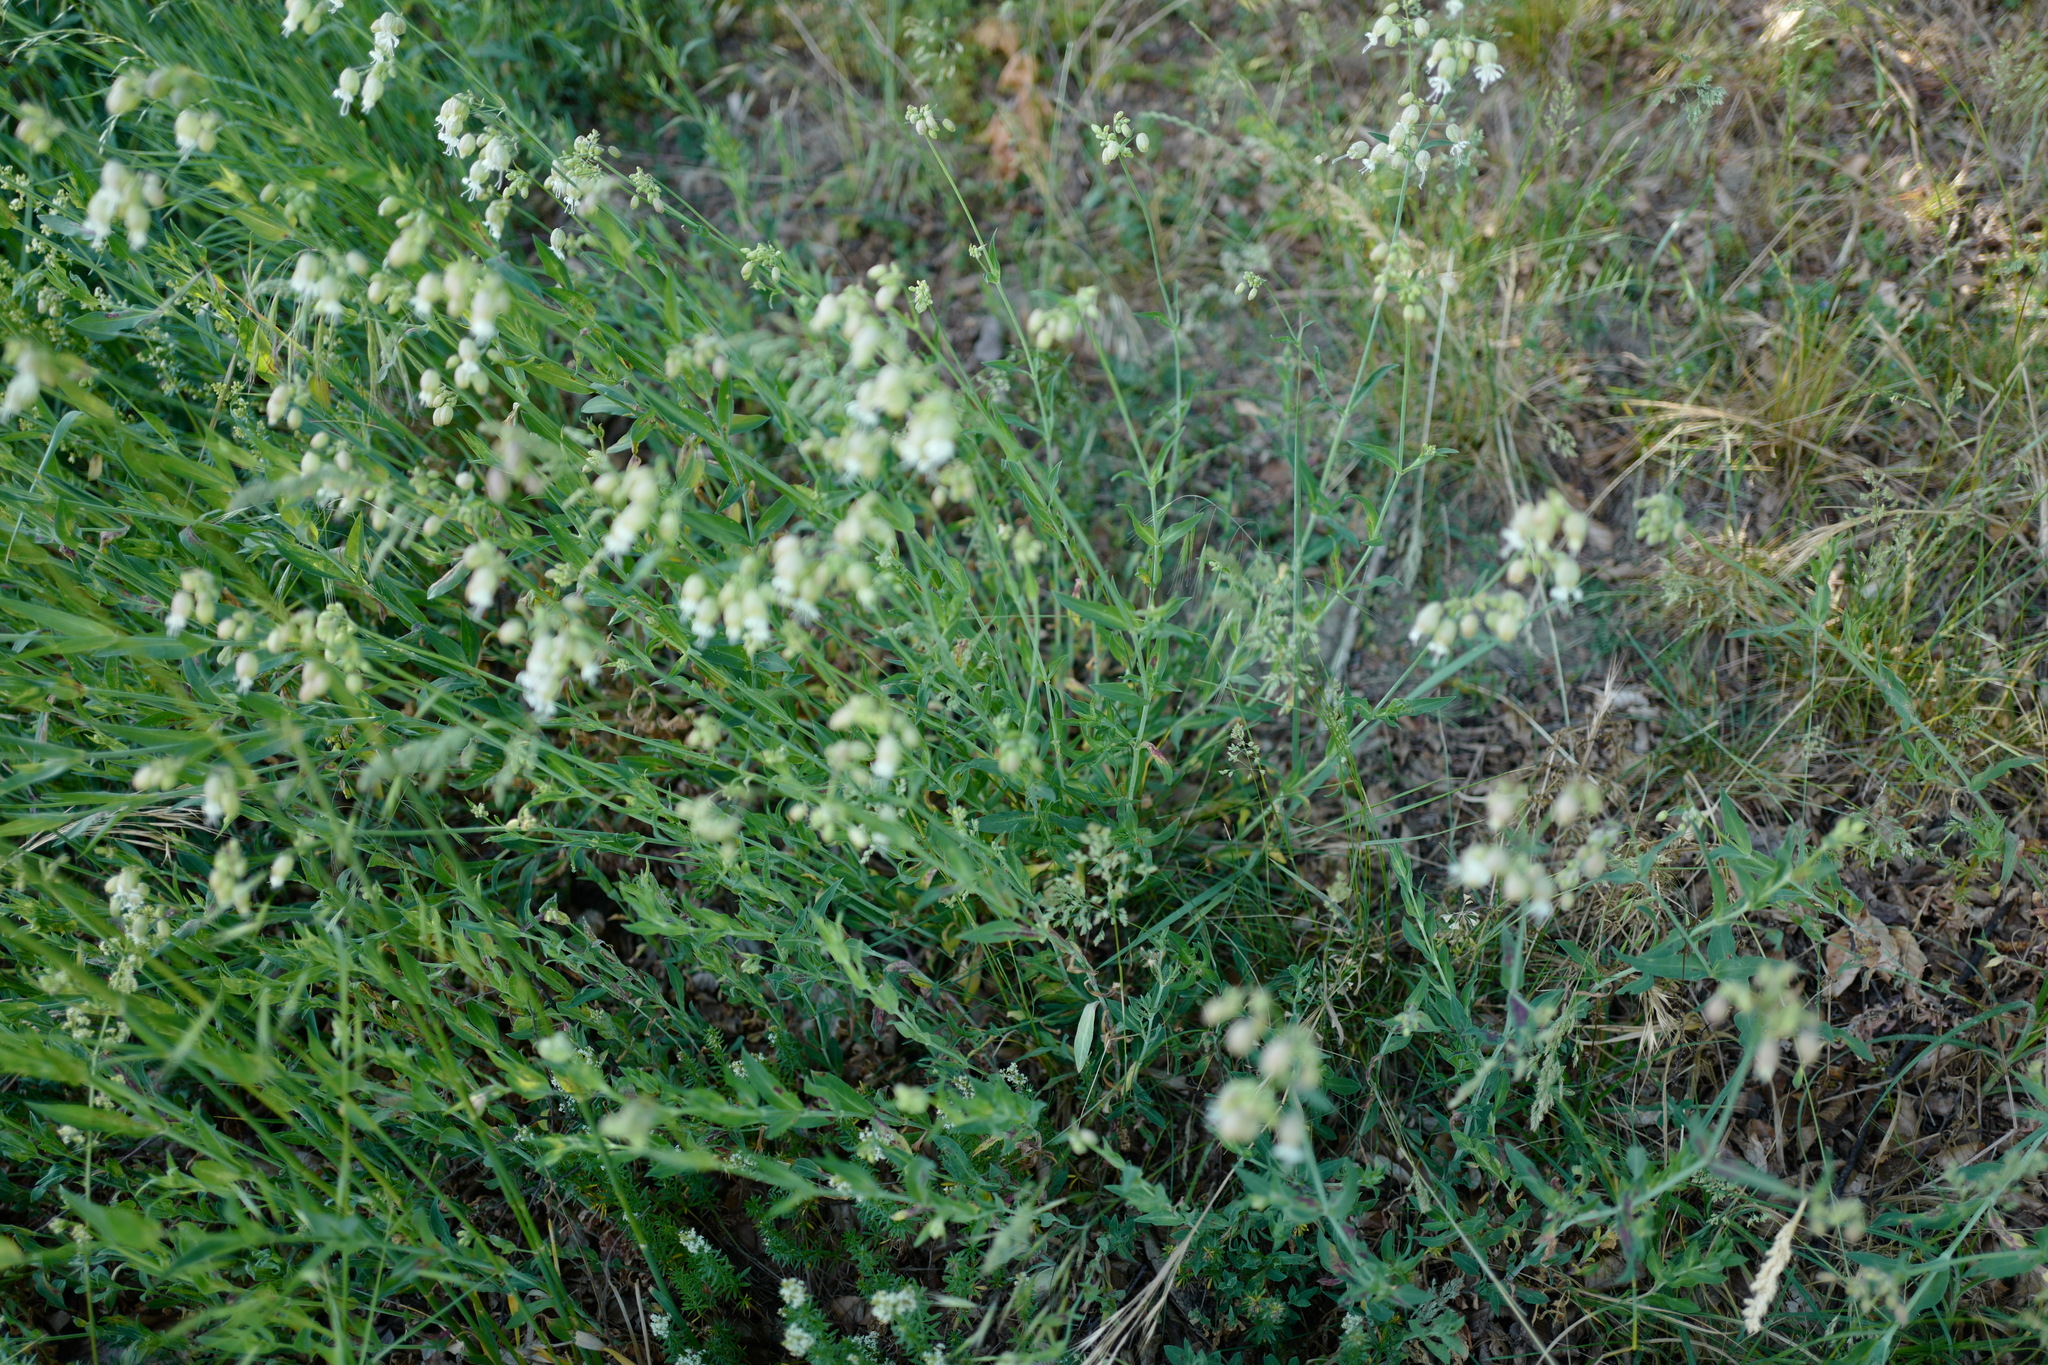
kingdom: Plantae
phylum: Tracheophyta
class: Magnoliopsida
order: Caryophyllales
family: Caryophyllaceae
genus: Silene
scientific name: Silene vulgaris
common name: Bladder campion
